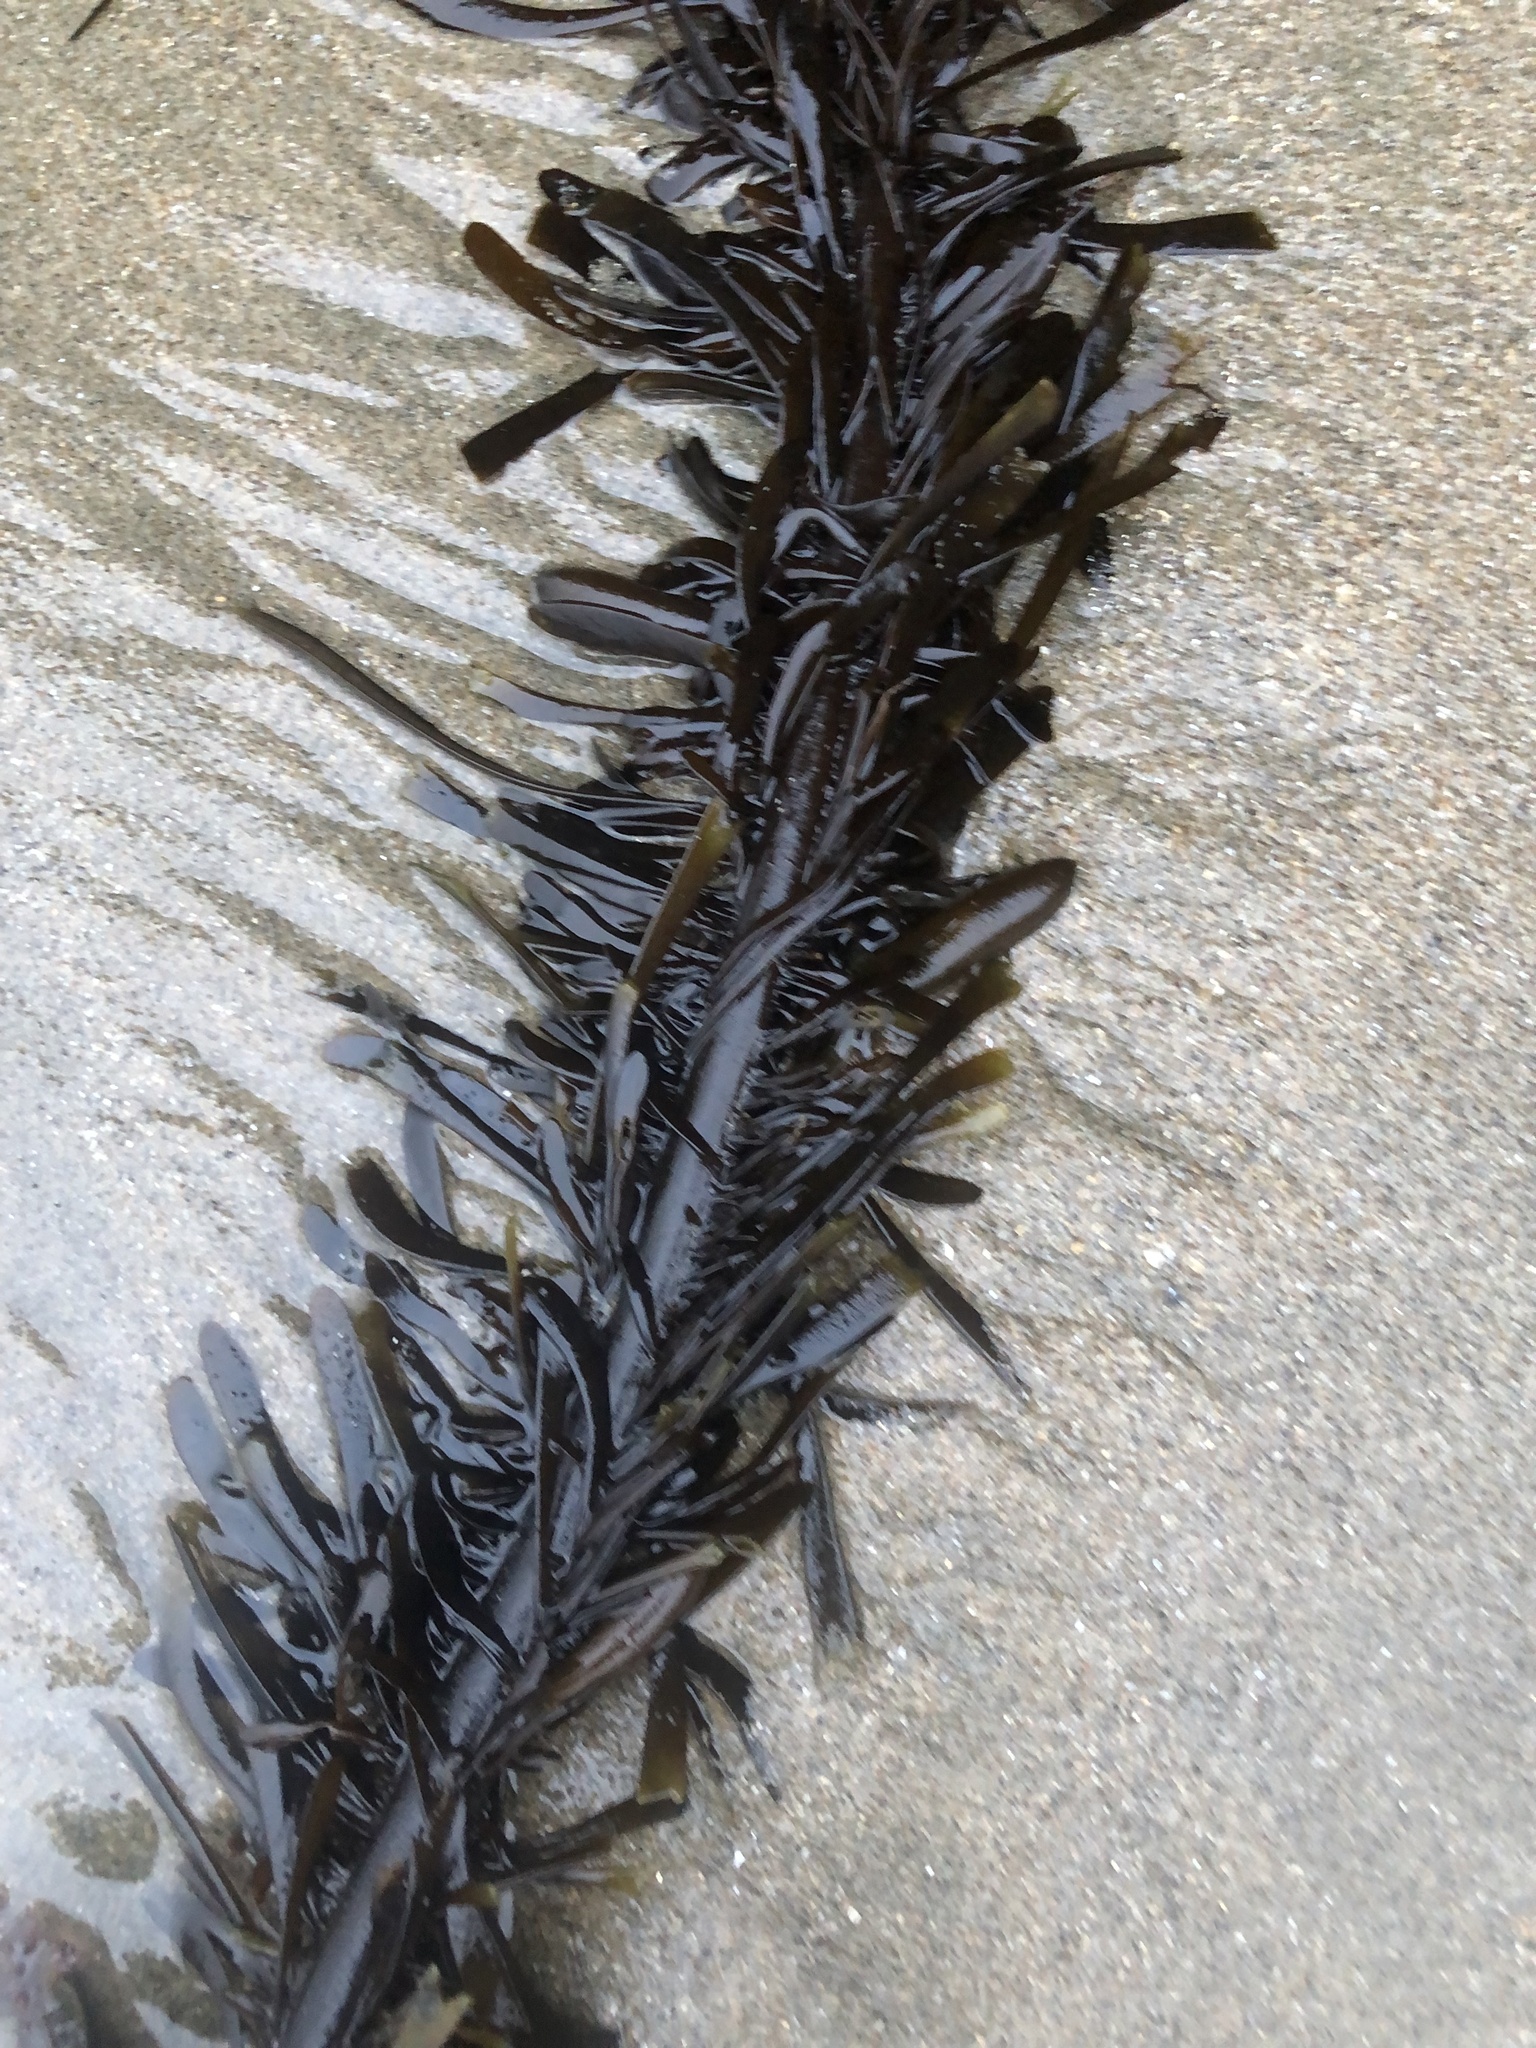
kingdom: Chromista
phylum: Ochrophyta
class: Phaeophyceae
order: Laminariales
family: Lessoniaceae
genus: Egregia
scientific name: Egregia menziesii
